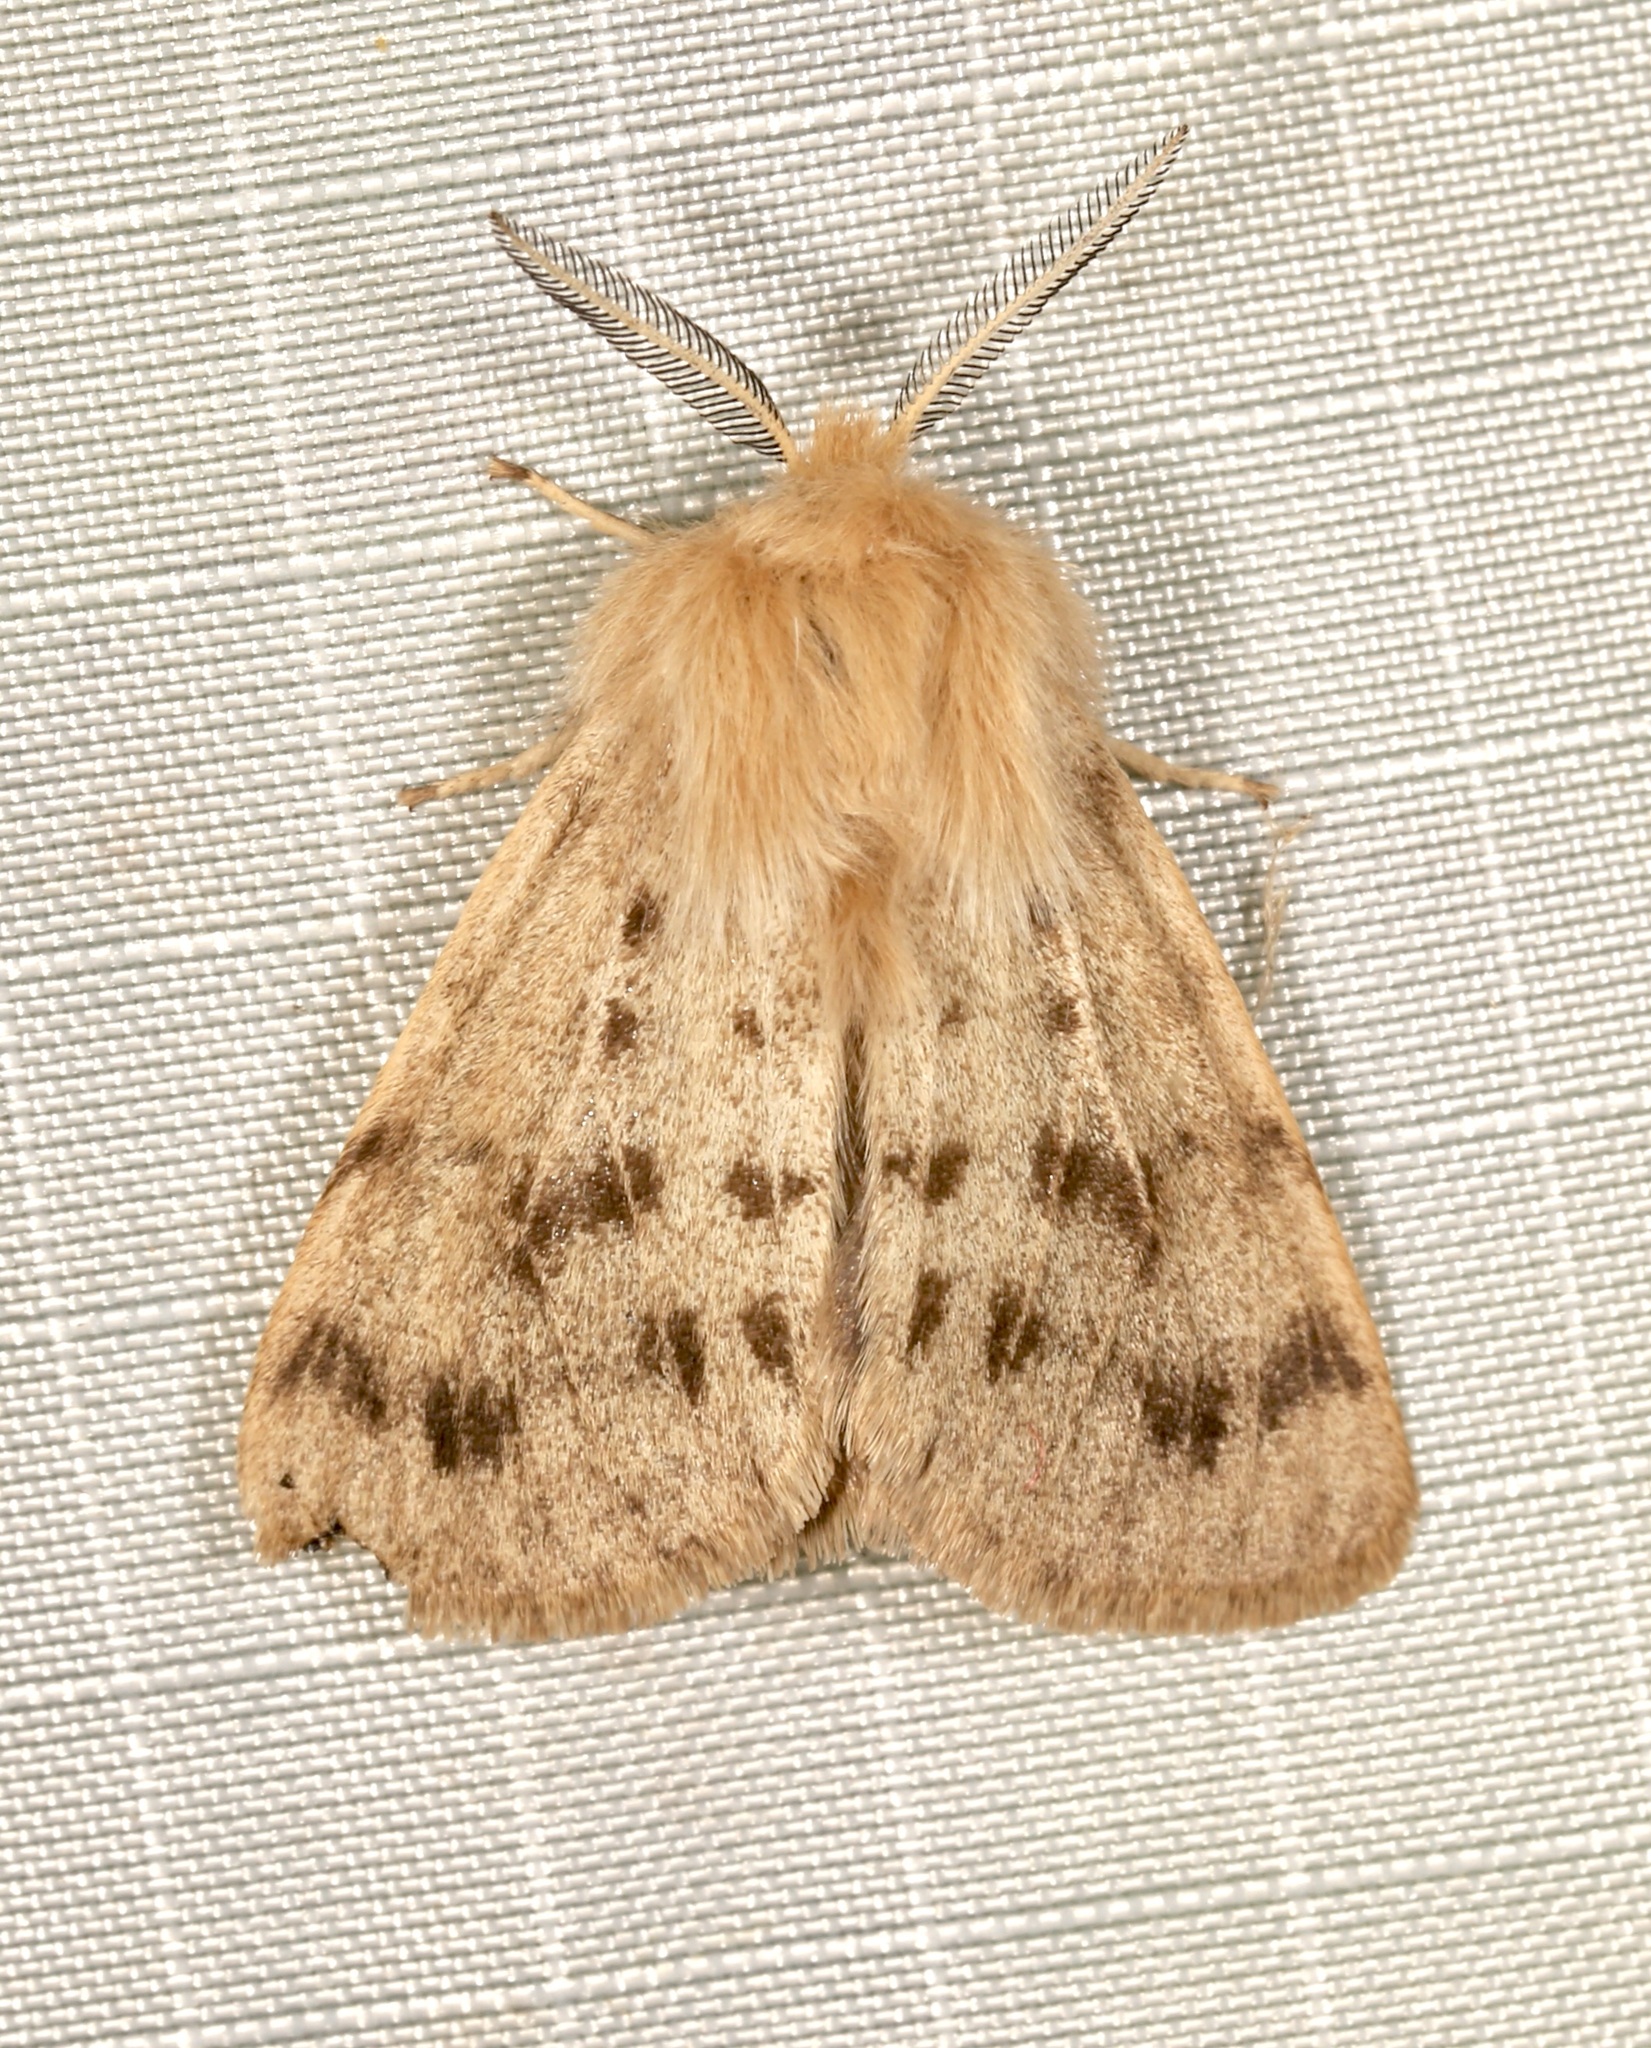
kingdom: Animalia
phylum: Arthropoda
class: Insecta
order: Lepidoptera
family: Erebidae
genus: Spilosoma
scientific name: Spilosoma vagans
